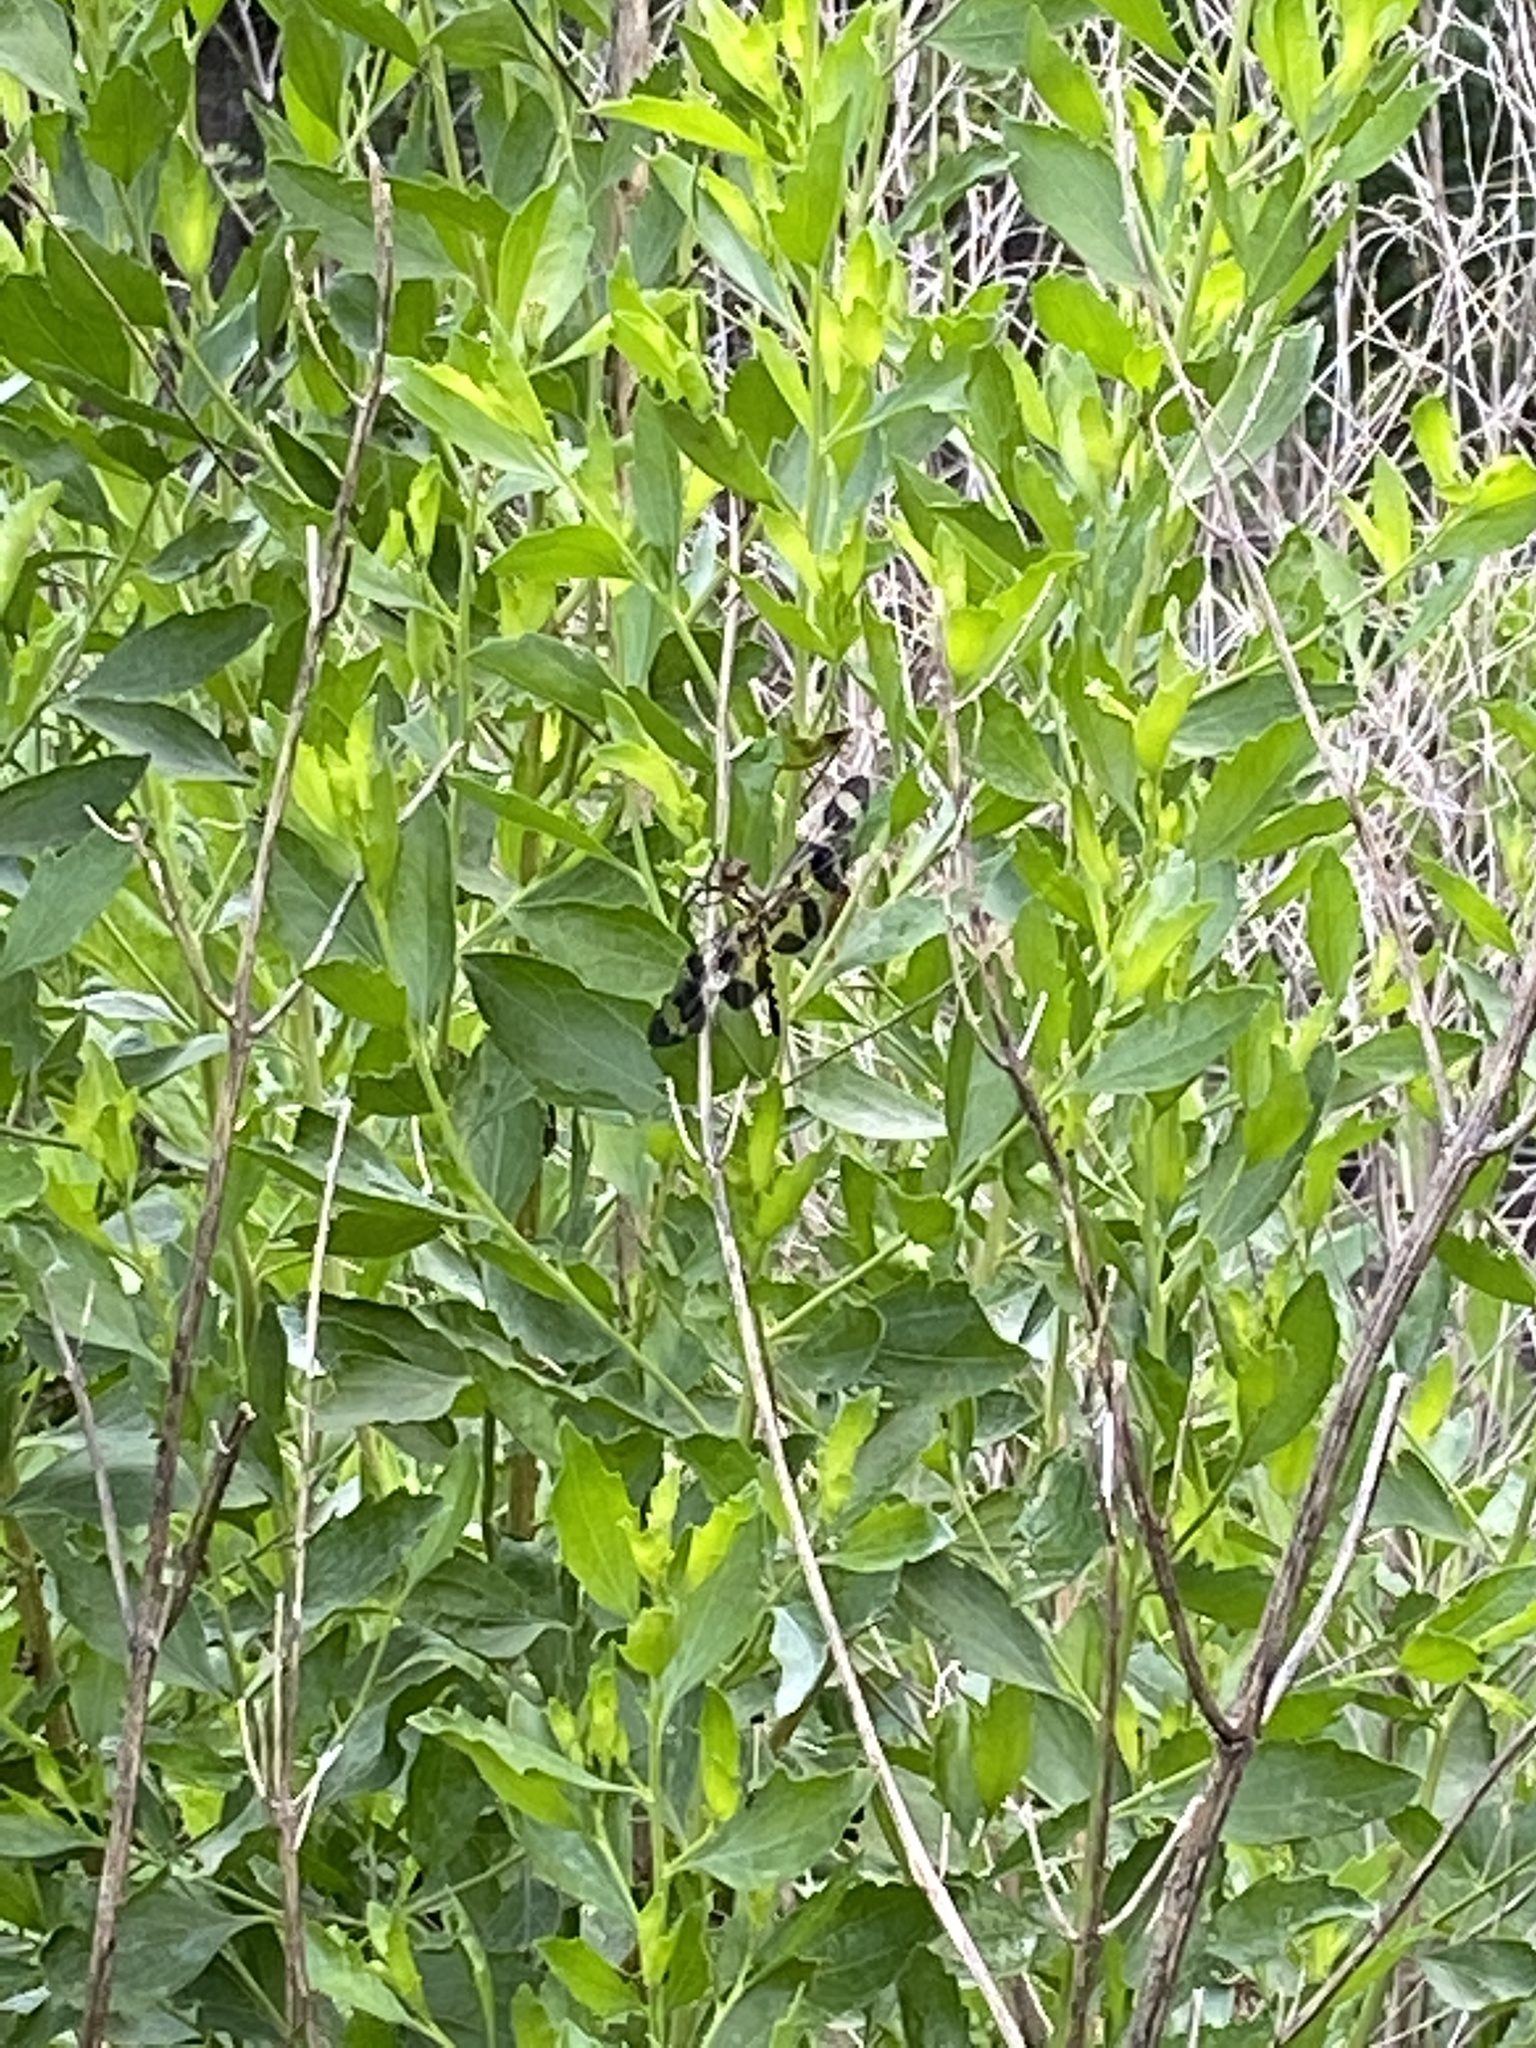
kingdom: Animalia
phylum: Arthropoda
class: Insecta
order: Odonata
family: Libellulidae
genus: Celithemis
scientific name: Celithemis fasciata
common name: Banded pennant
